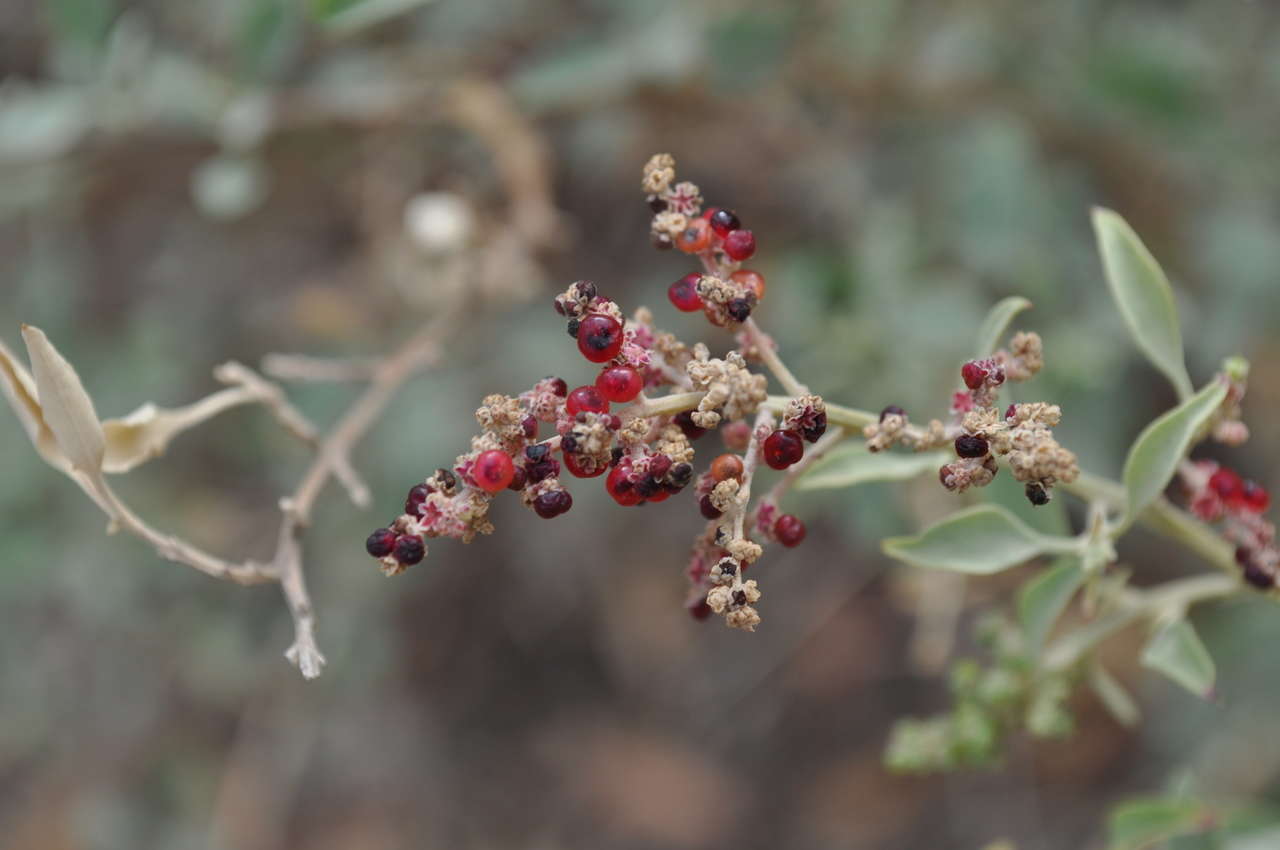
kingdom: Plantae
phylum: Tracheophyta
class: Magnoliopsida
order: Caryophyllales
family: Amaranthaceae
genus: Chenopodium
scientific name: Chenopodium parabolicum
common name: Old-man-saltbush
